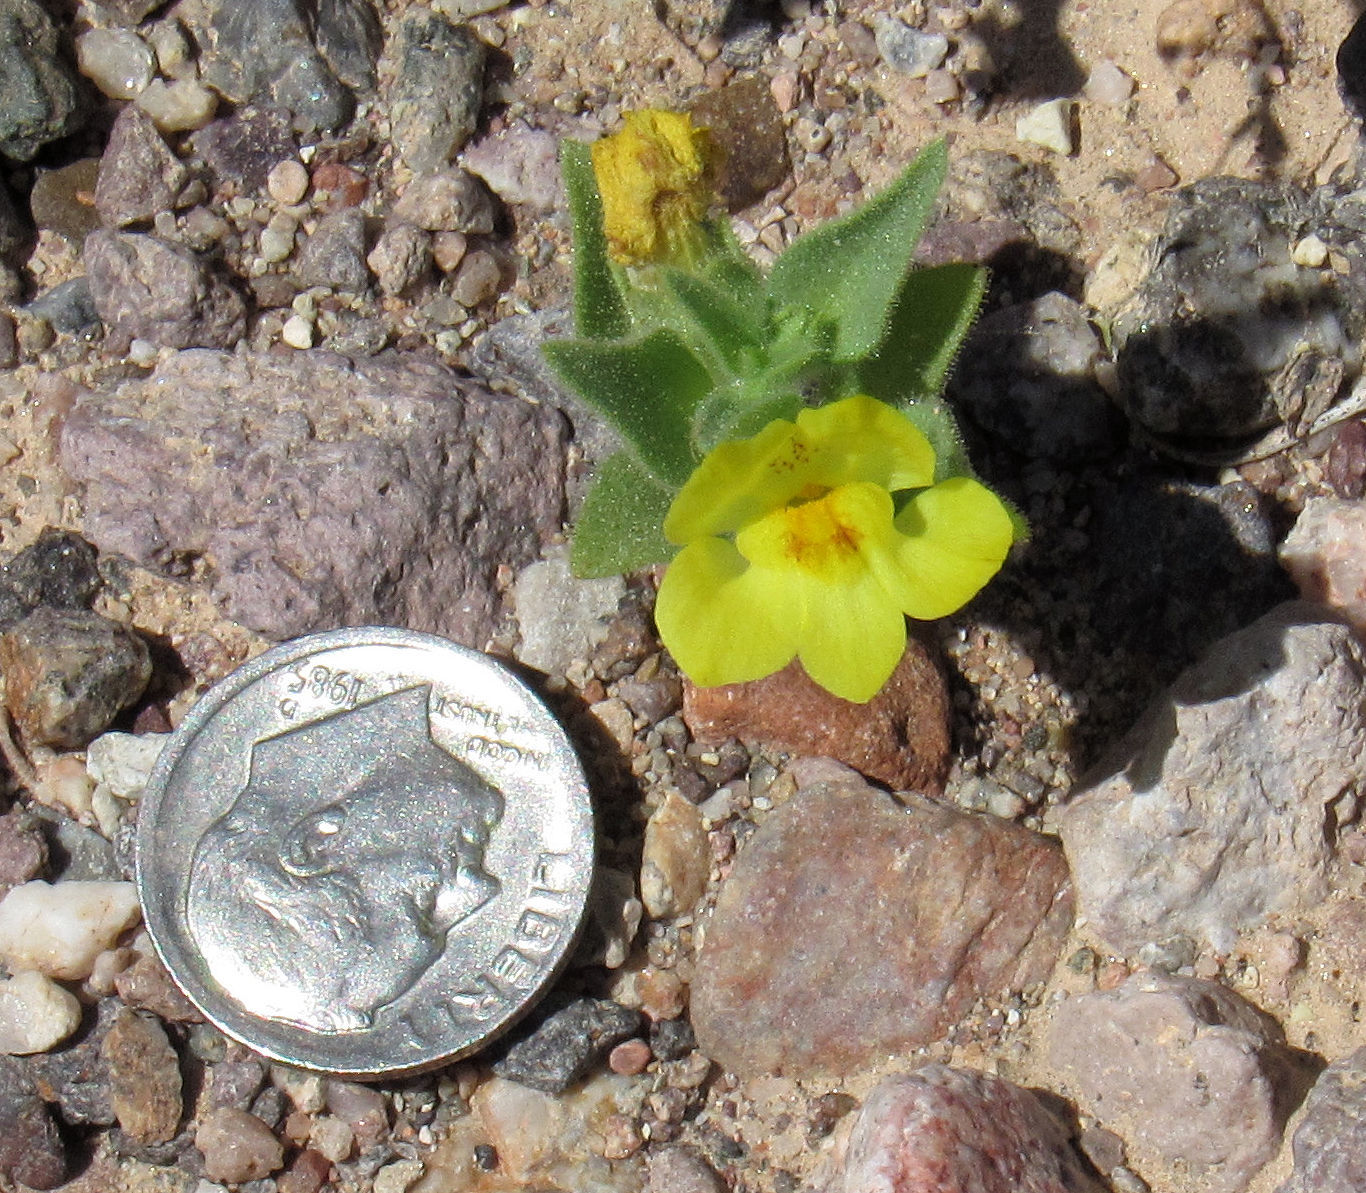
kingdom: Plantae
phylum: Tracheophyta
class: Magnoliopsida
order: Lamiales
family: Plantaginaceae
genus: Mohavea
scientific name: Mohavea breviflora
